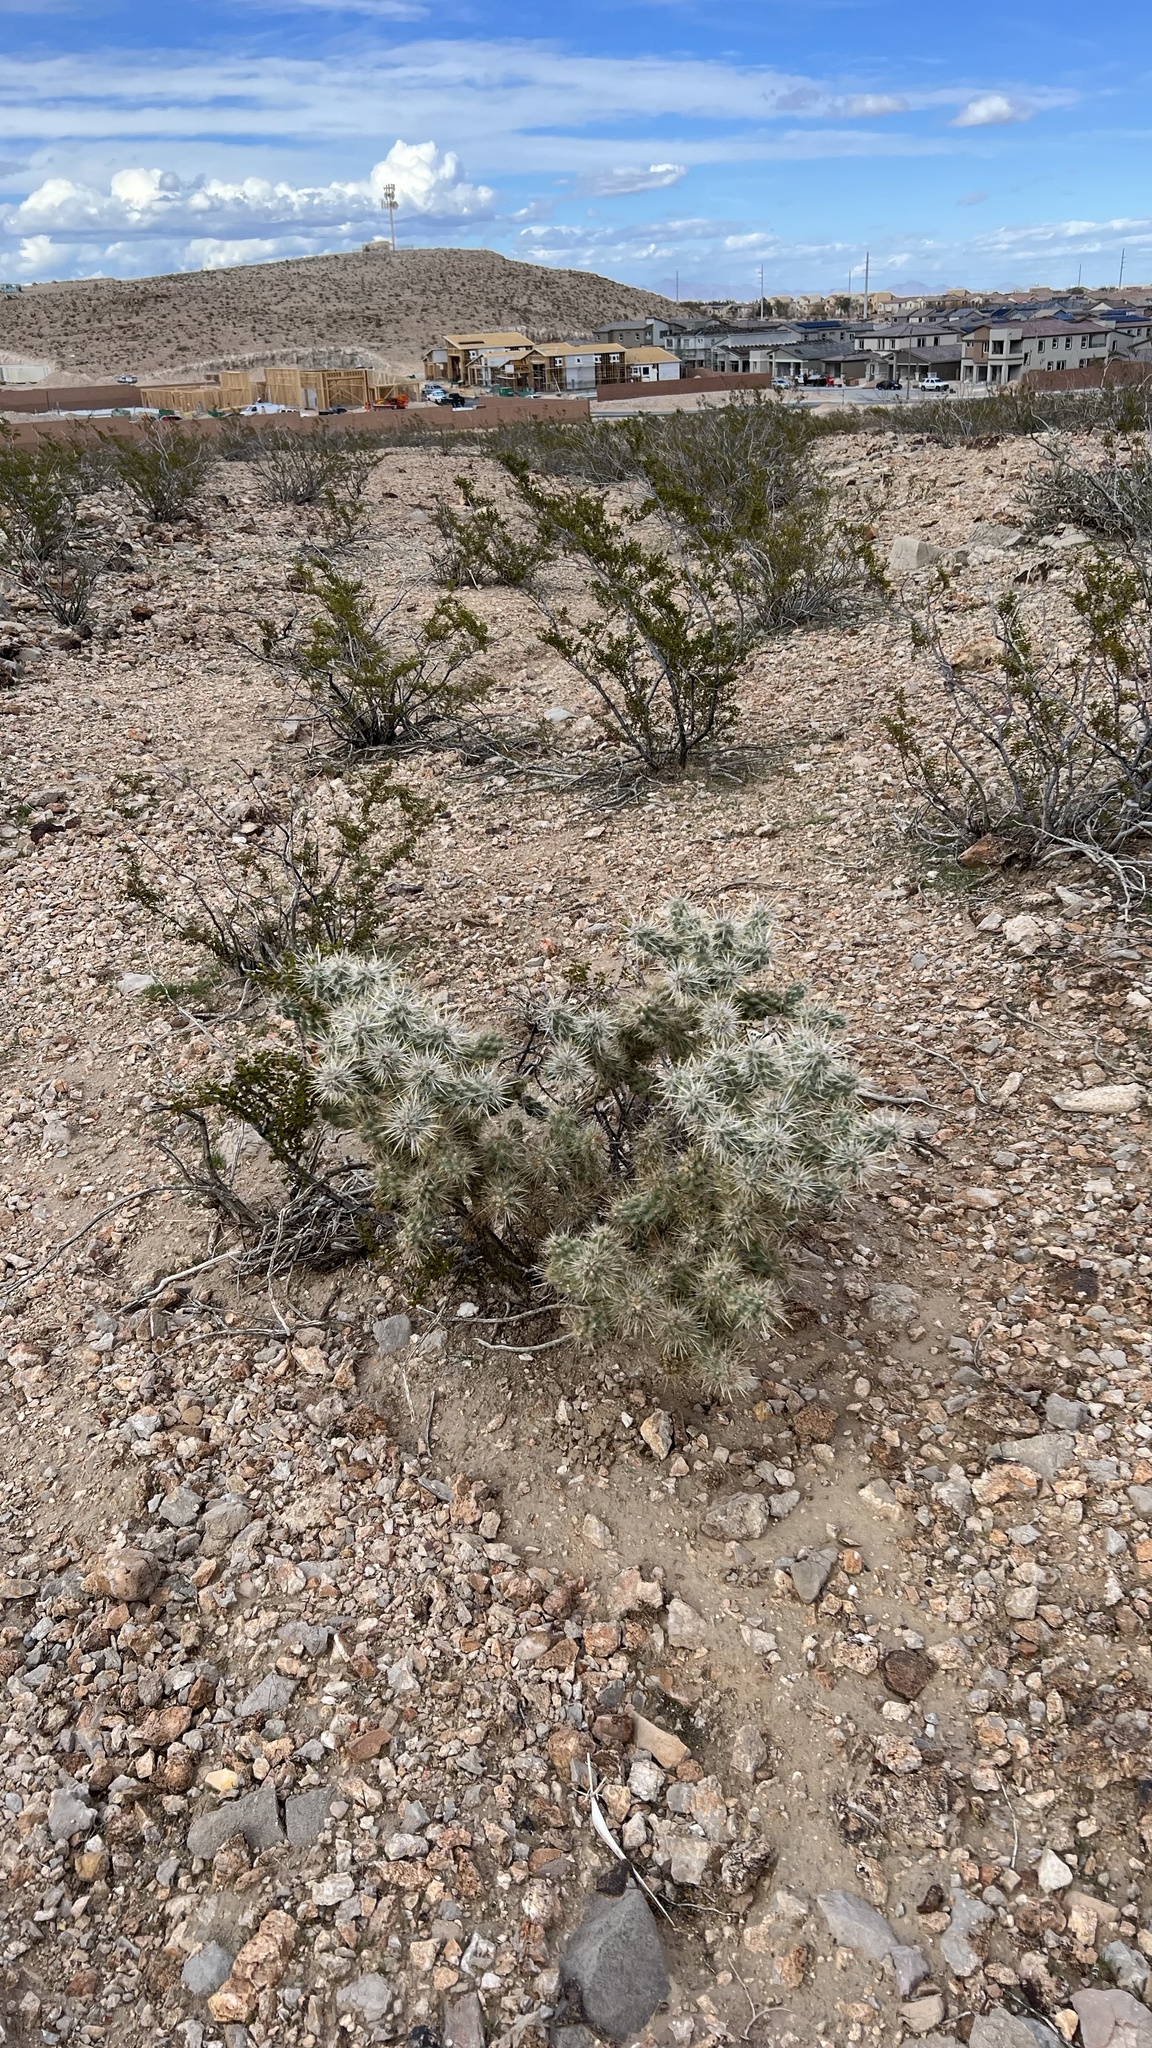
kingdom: Plantae
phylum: Tracheophyta
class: Magnoliopsida
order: Caryophyllales
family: Cactaceae
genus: Cylindropuntia
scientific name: Cylindropuntia echinocarpa
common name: Ground cholla
